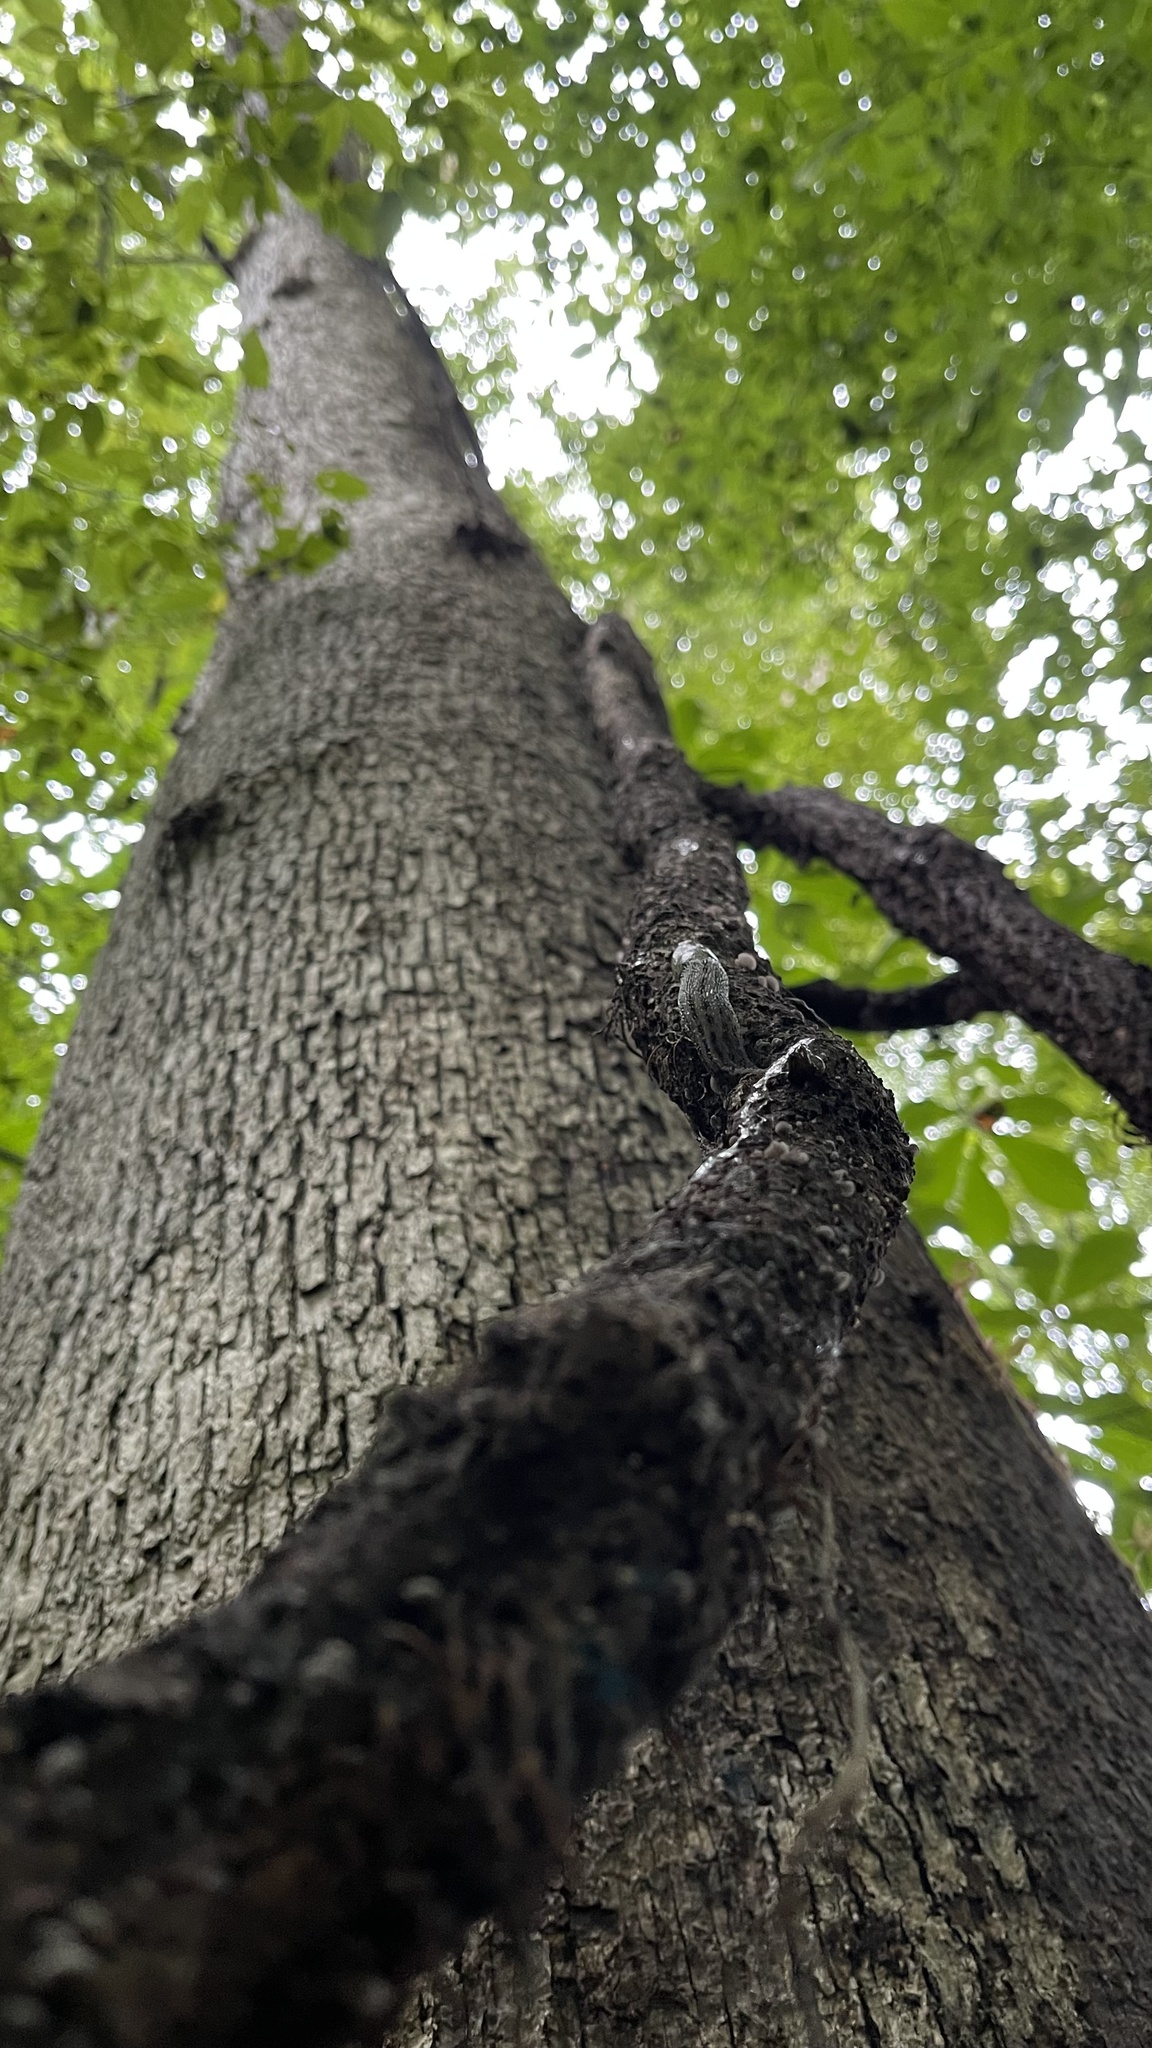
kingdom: Animalia
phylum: Mollusca
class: Gastropoda
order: Stylommatophora
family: Limacidae
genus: Limax
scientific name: Limax maximus
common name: Great grey slug
